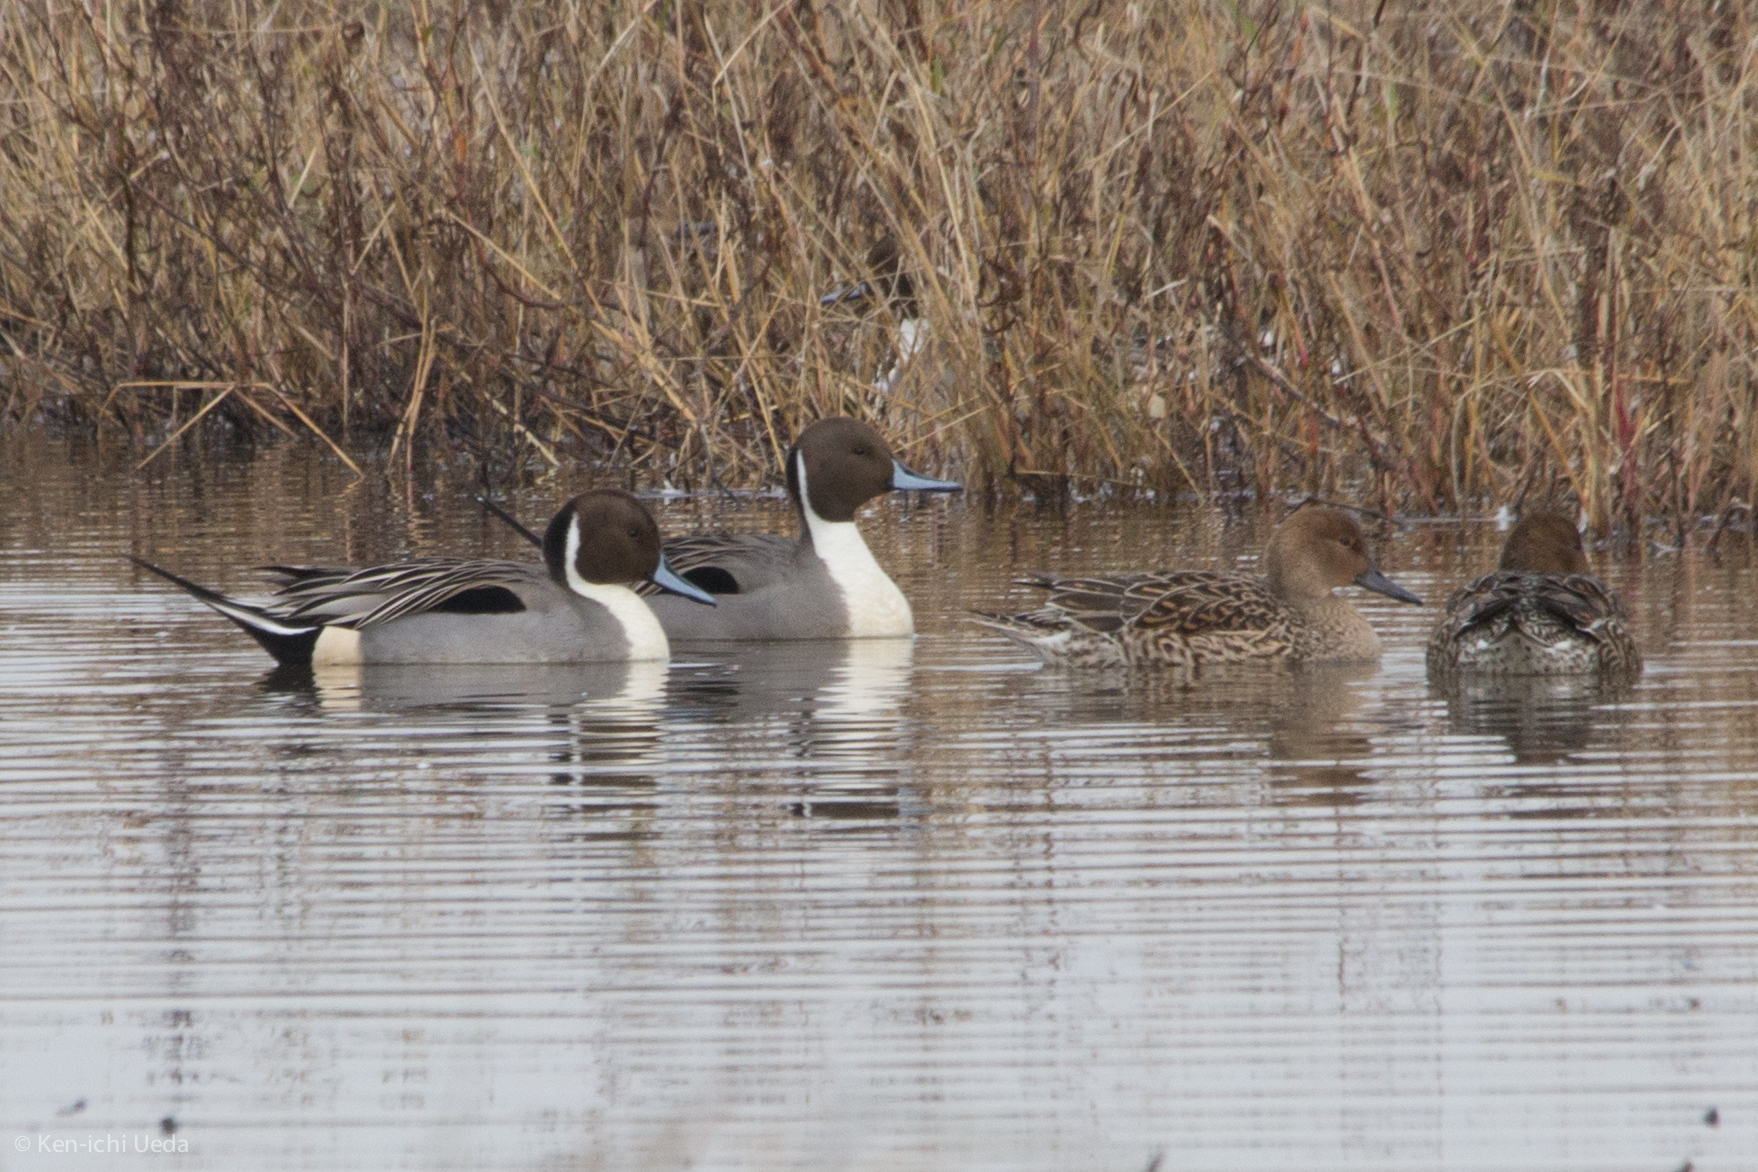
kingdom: Animalia
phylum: Chordata
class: Aves
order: Anseriformes
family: Anatidae
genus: Anas
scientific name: Anas acuta
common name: Northern pintail
